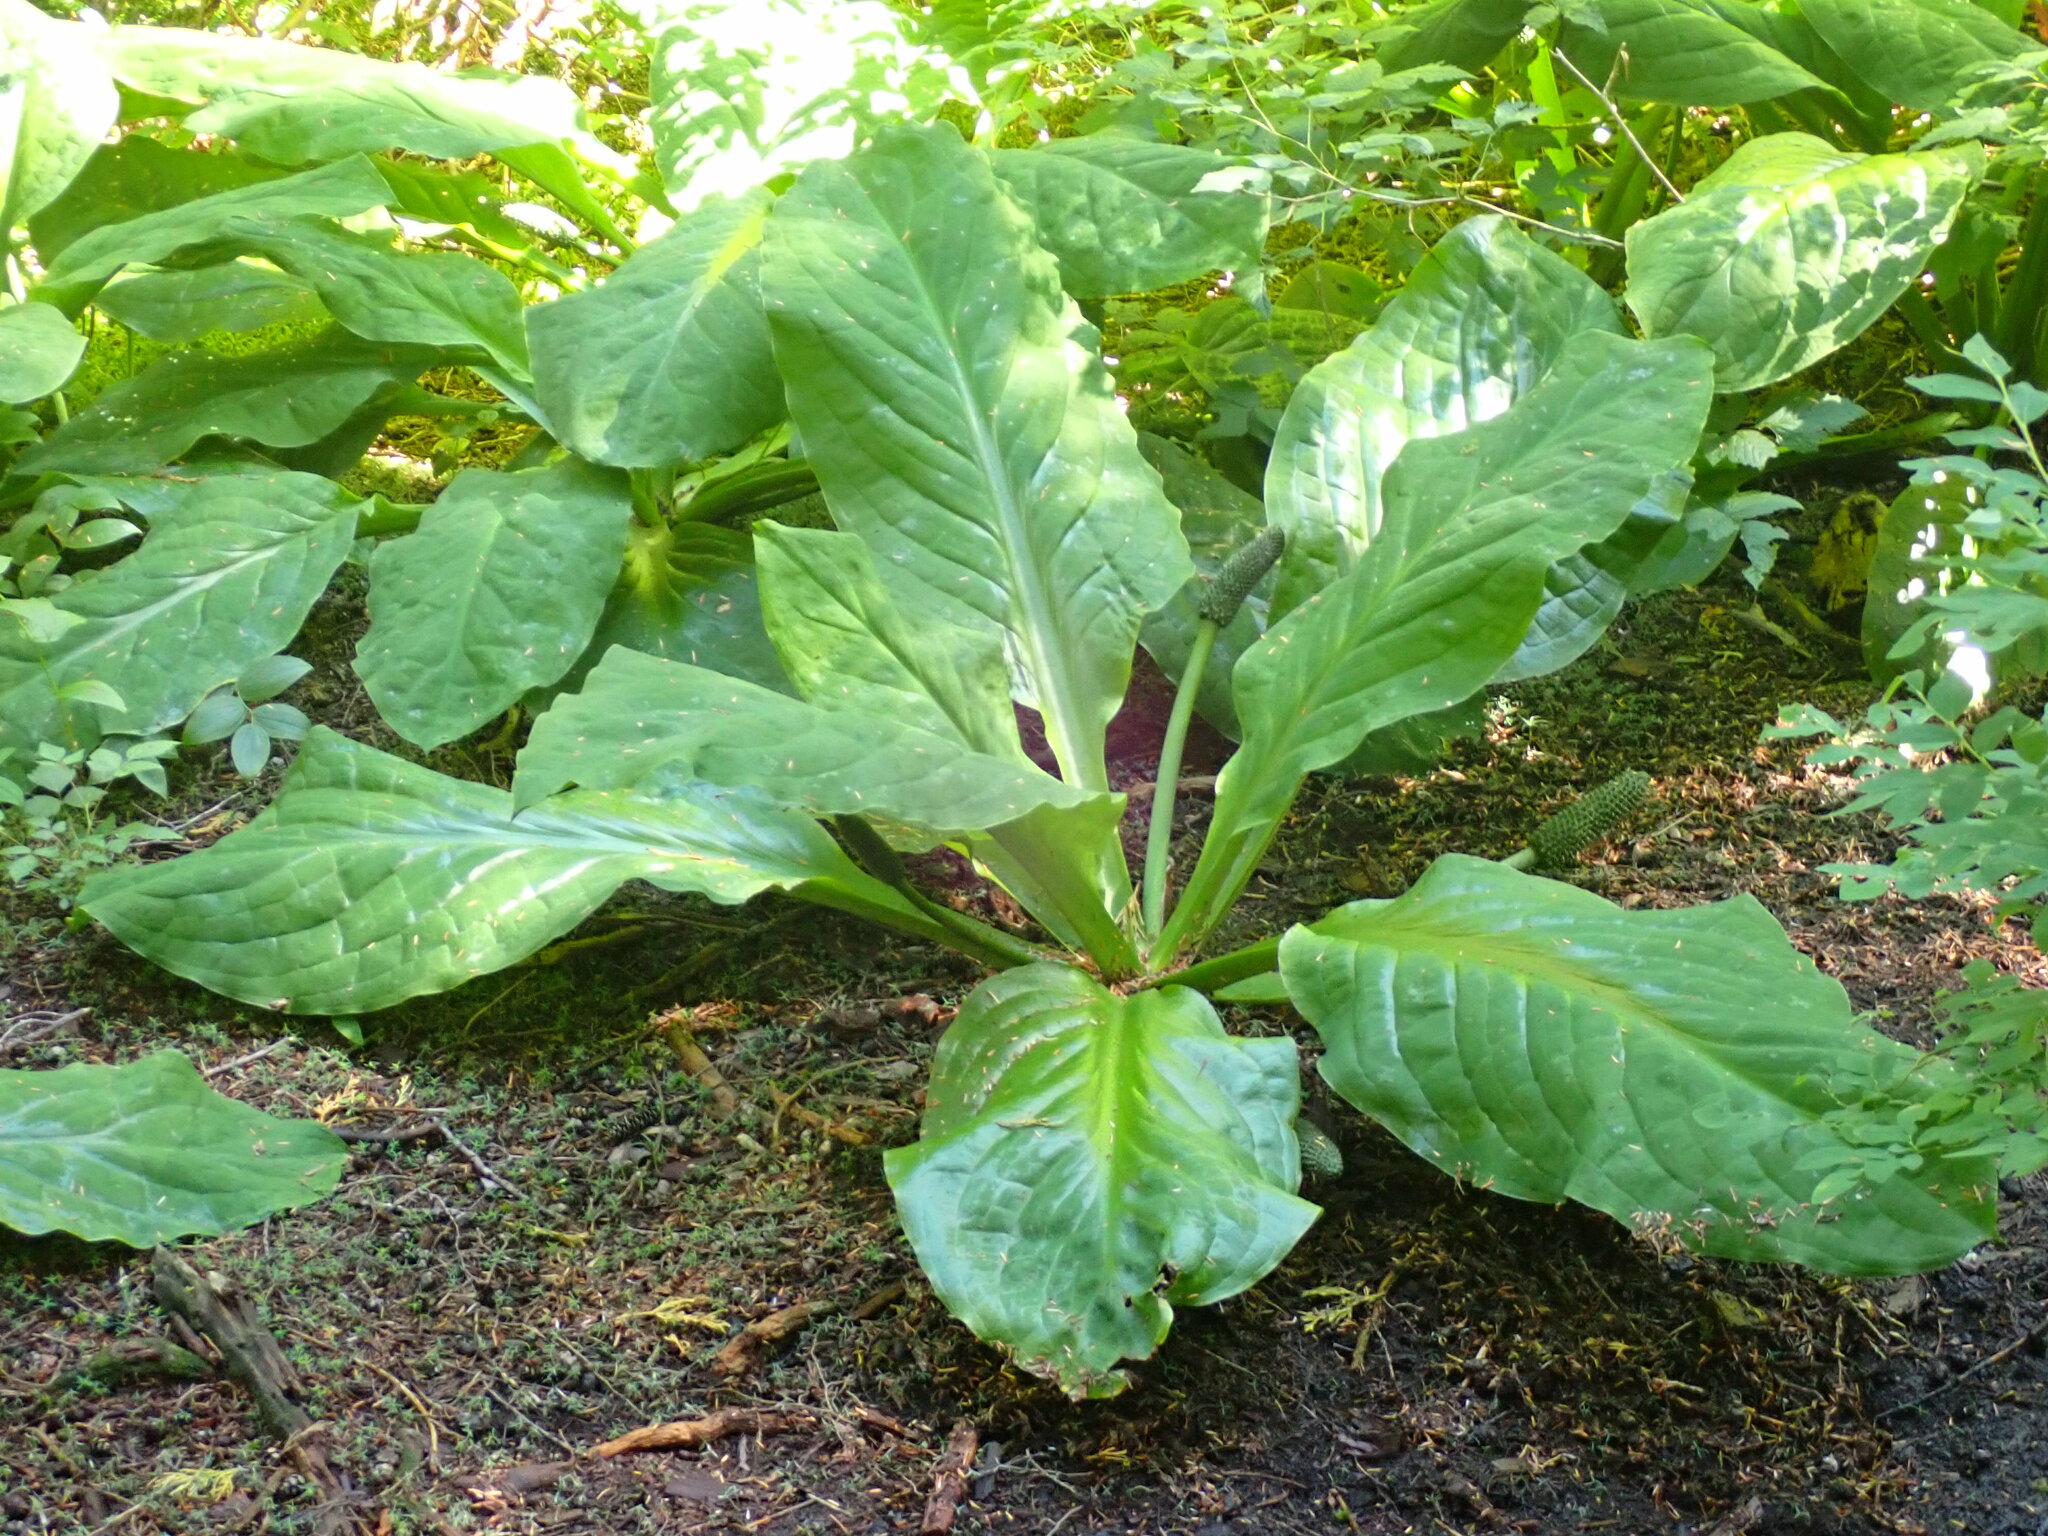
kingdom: Plantae
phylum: Tracheophyta
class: Liliopsida
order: Alismatales
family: Araceae
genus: Lysichiton
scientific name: Lysichiton americanus
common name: American skunk cabbage
